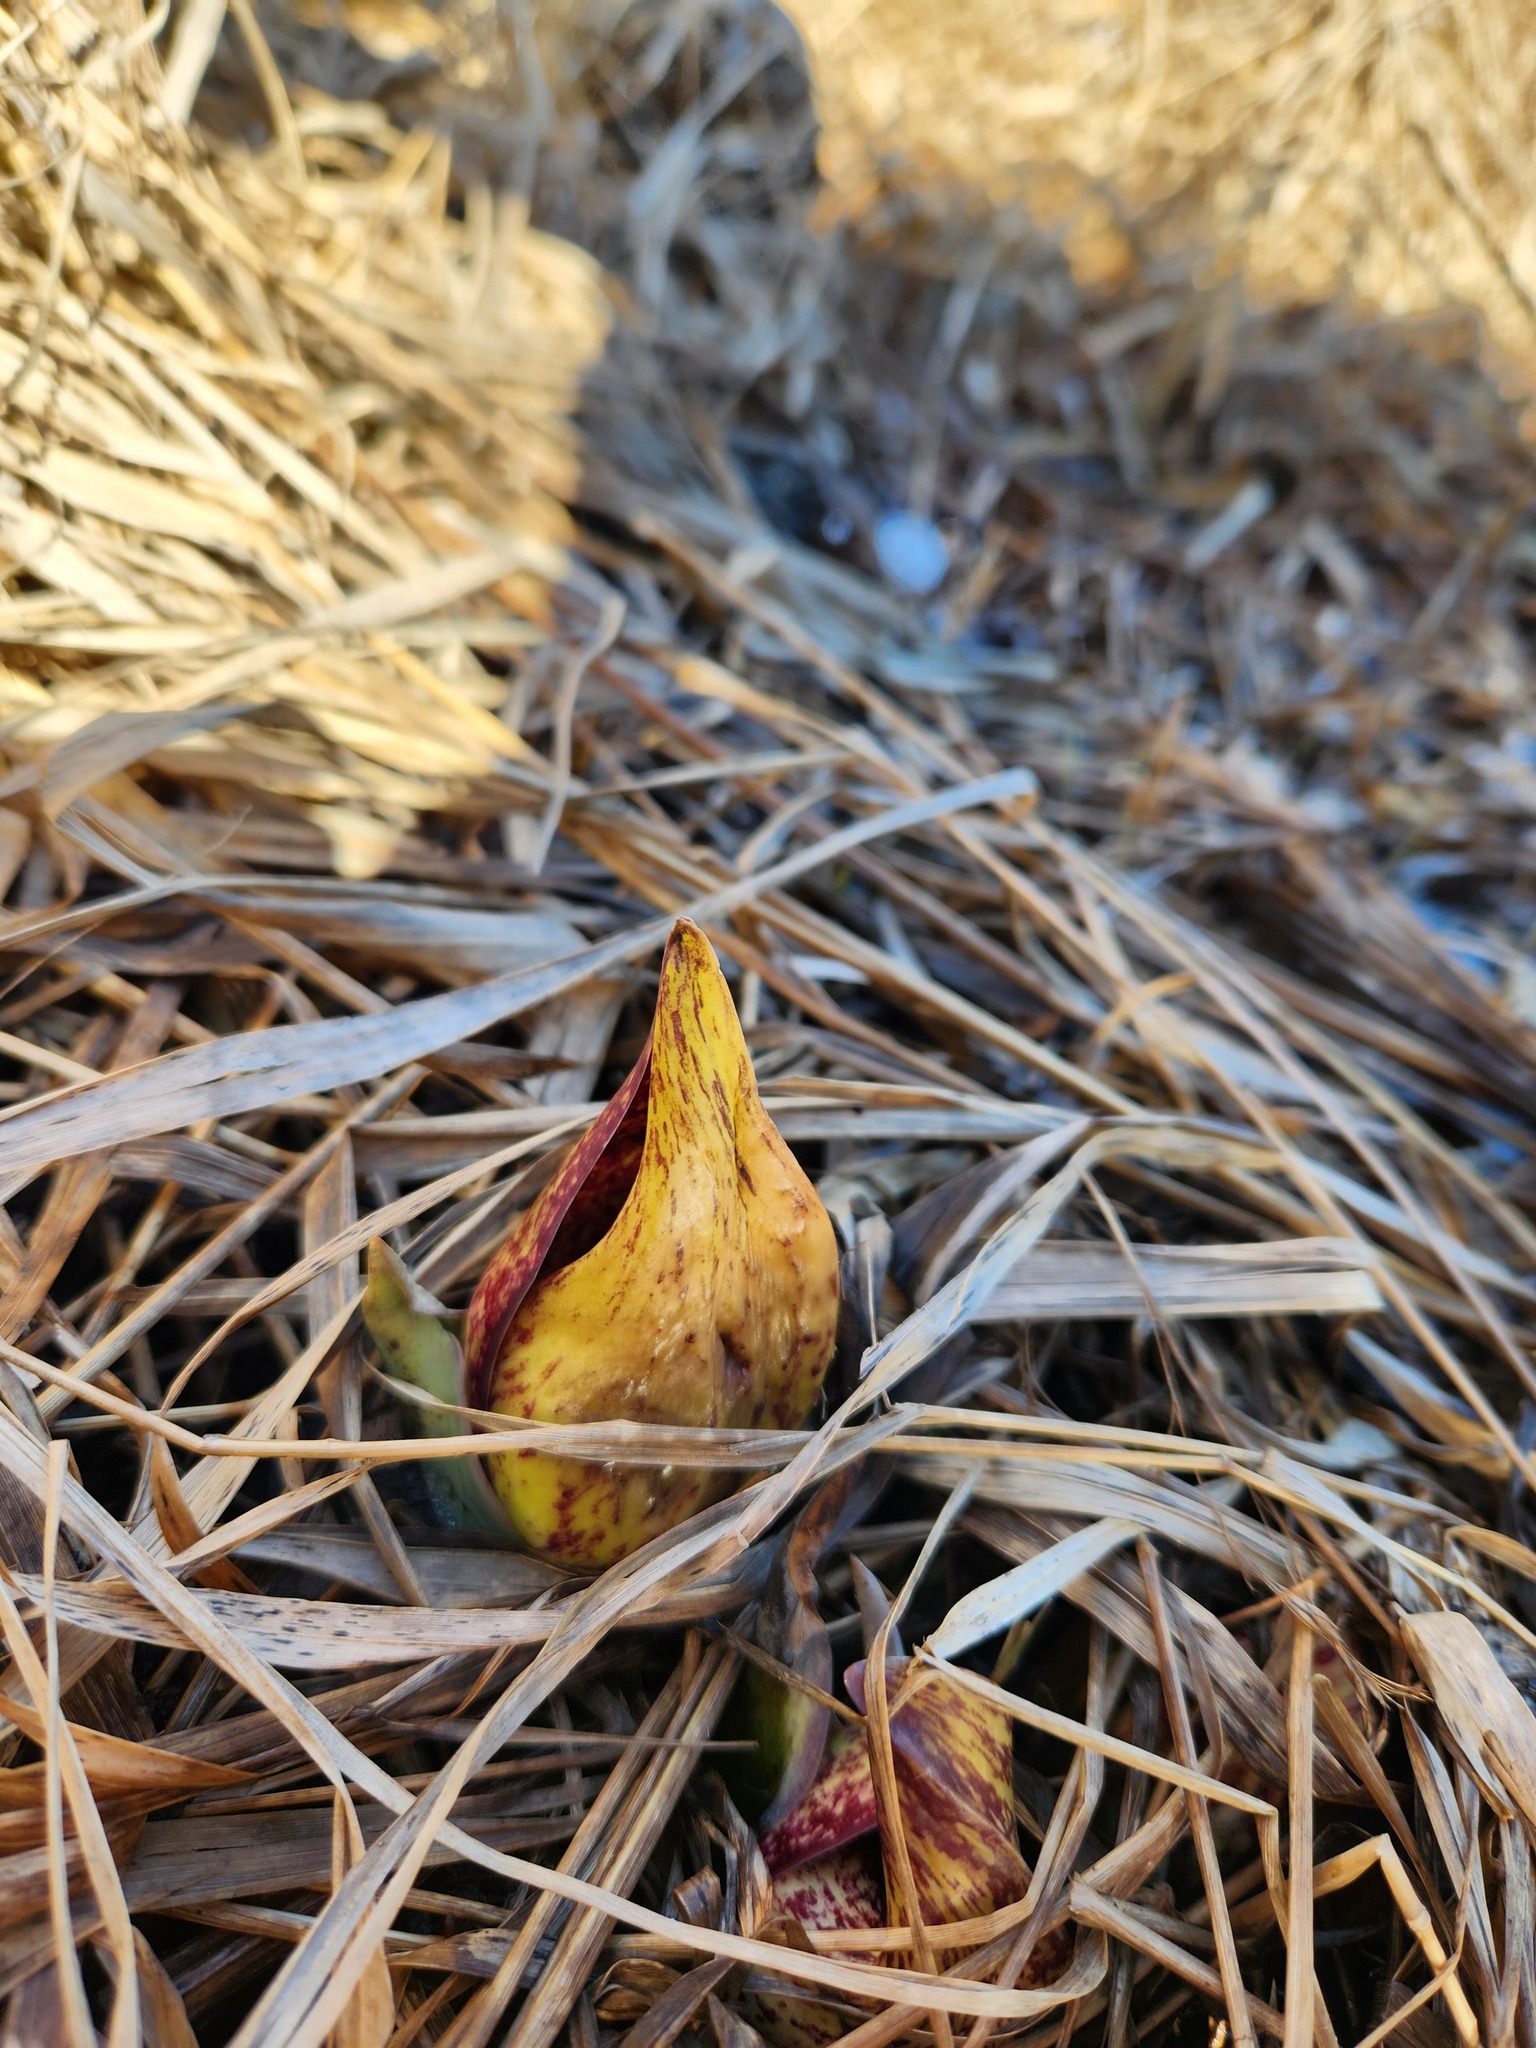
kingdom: Plantae
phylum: Tracheophyta
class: Liliopsida
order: Alismatales
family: Araceae
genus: Symplocarpus
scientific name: Symplocarpus foetidus
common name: Eastern skunk cabbage
